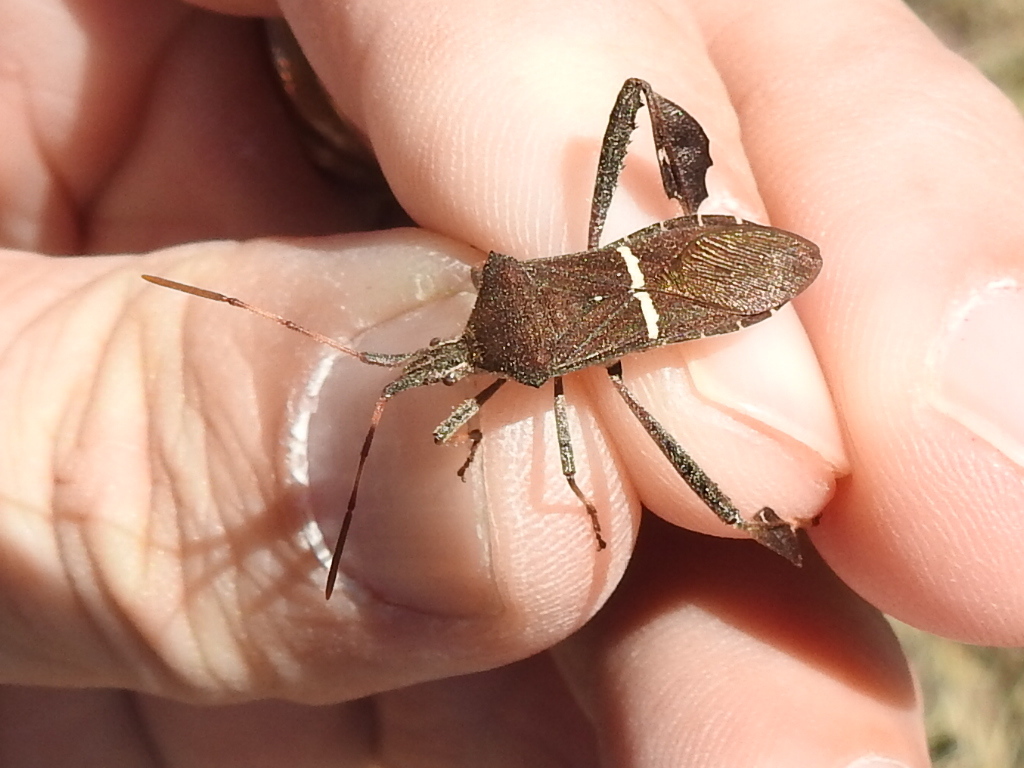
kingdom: Animalia
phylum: Arthropoda
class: Insecta
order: Hemiptera
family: Coreidae
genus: Leptoglossus
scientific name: Leptoglossus phyllopus
